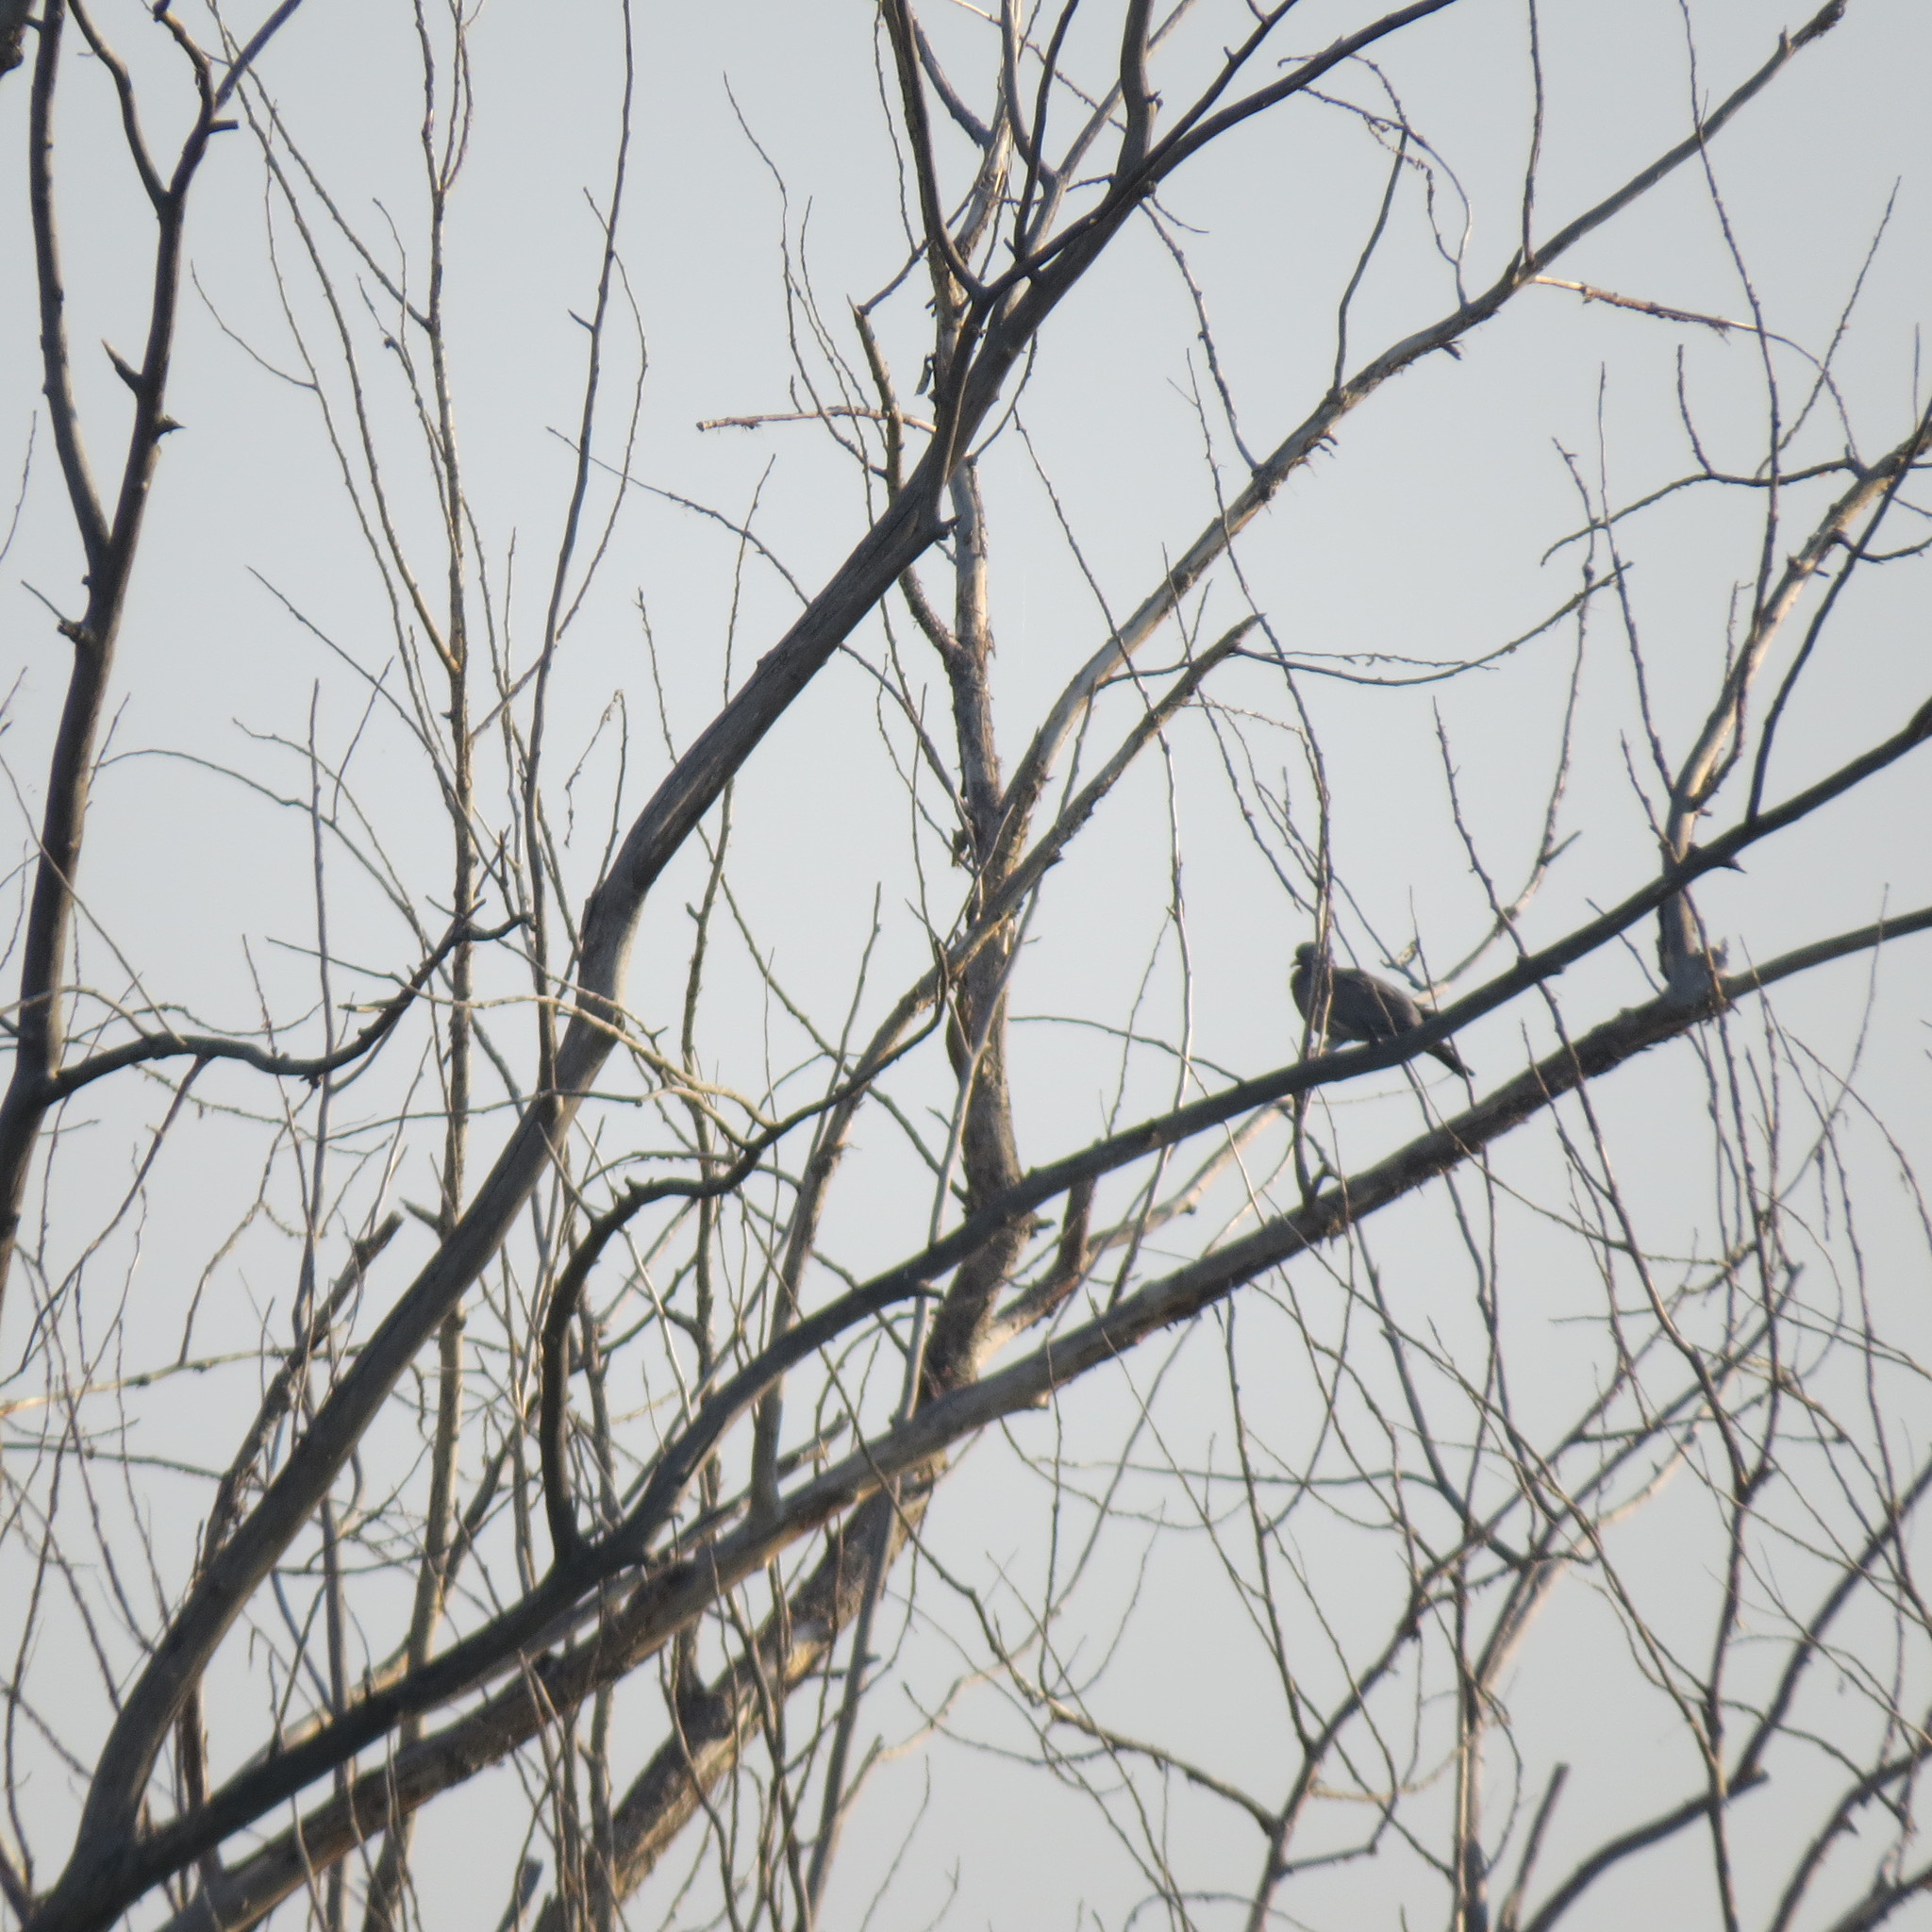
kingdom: Animalia
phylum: Chordata
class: Aves
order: Columbiformes
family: Columbidae
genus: Columba
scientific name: Columba palumbus
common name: Common wood pigeon
